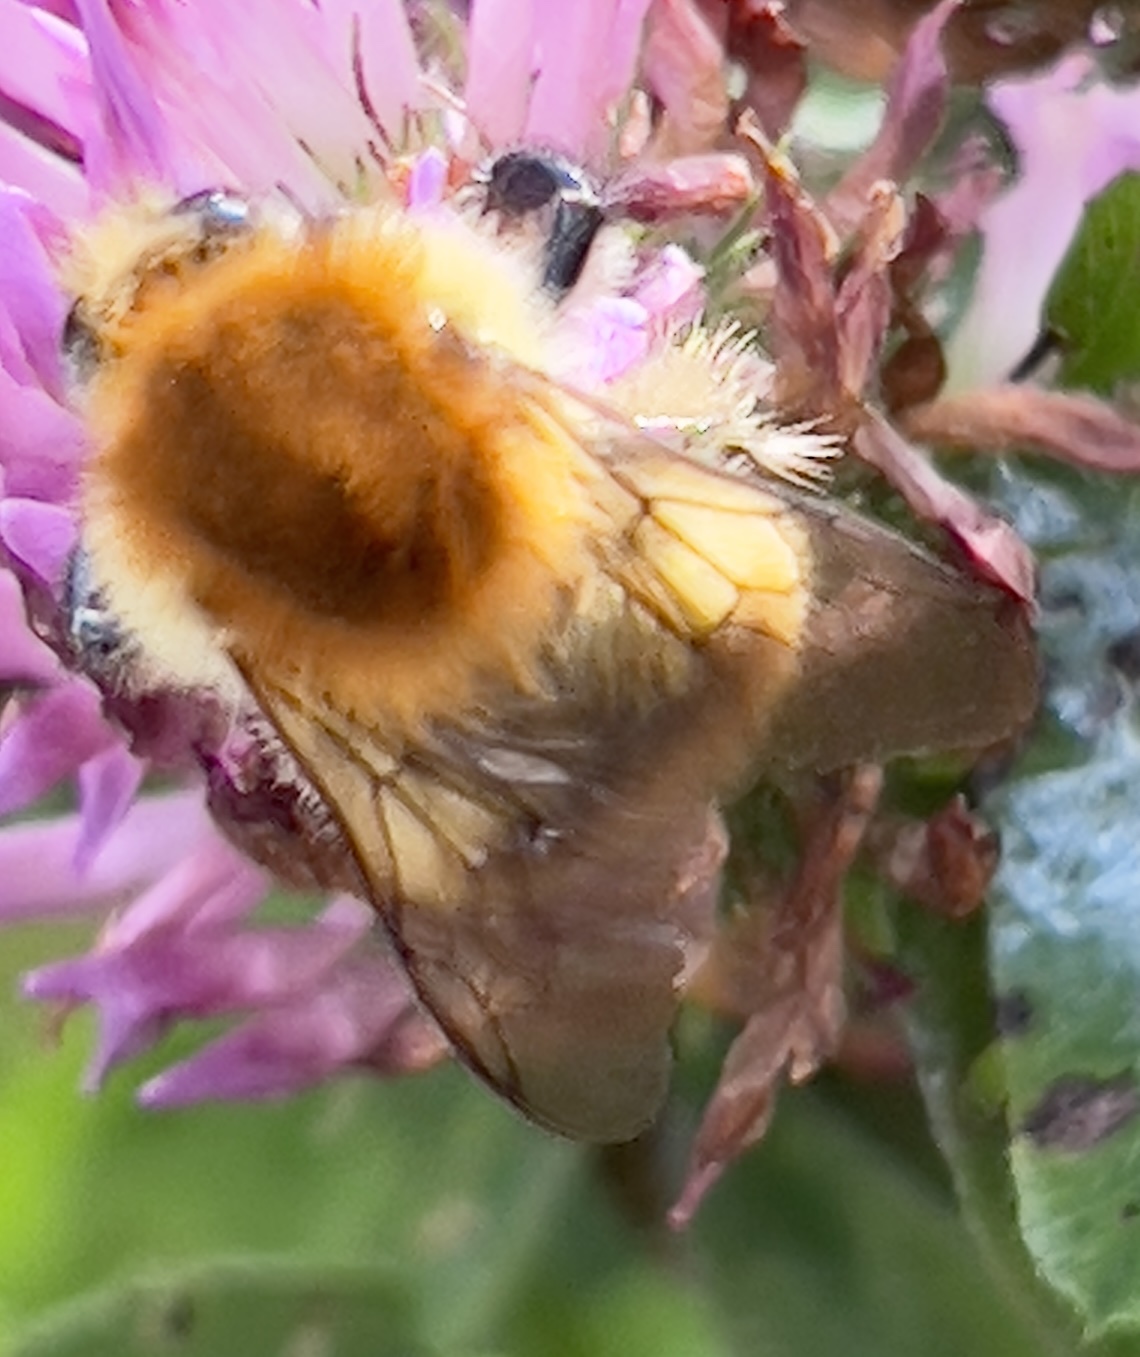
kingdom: Animalia
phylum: Arthropoda
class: Insecta
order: Hymenoptera
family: Apidae
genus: Bombus
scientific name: Bombus humilis
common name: Brown-banded carder-bee
